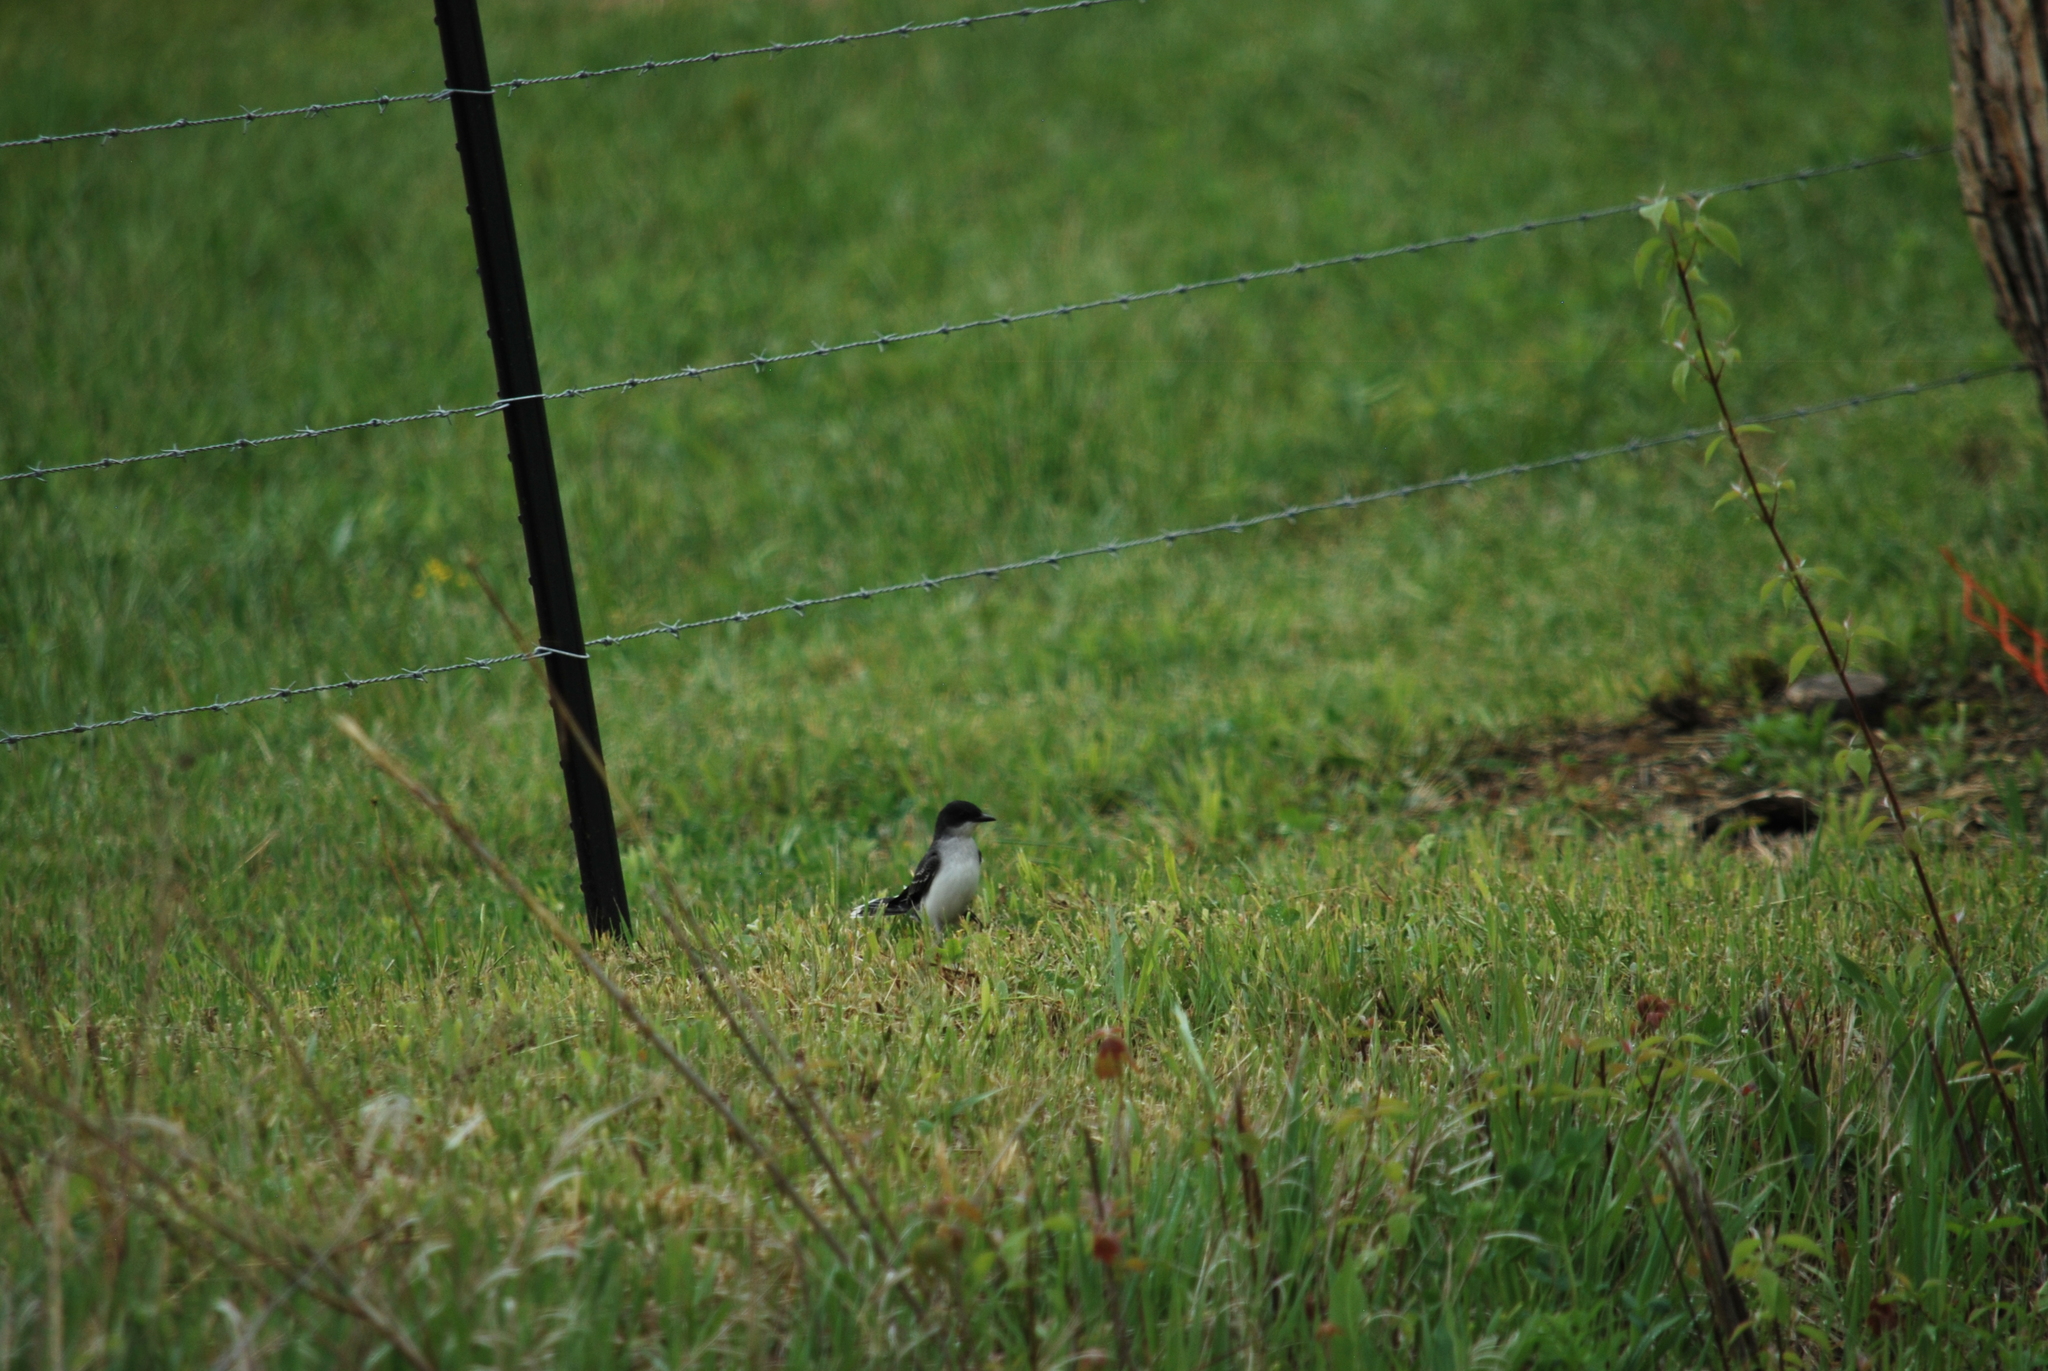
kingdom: Animalia
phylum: Chordata
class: Aves
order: Passeriformes
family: Tyrannidae
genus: Tyrannus
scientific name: Tyrannus tyrannus
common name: Eastern kingbird
